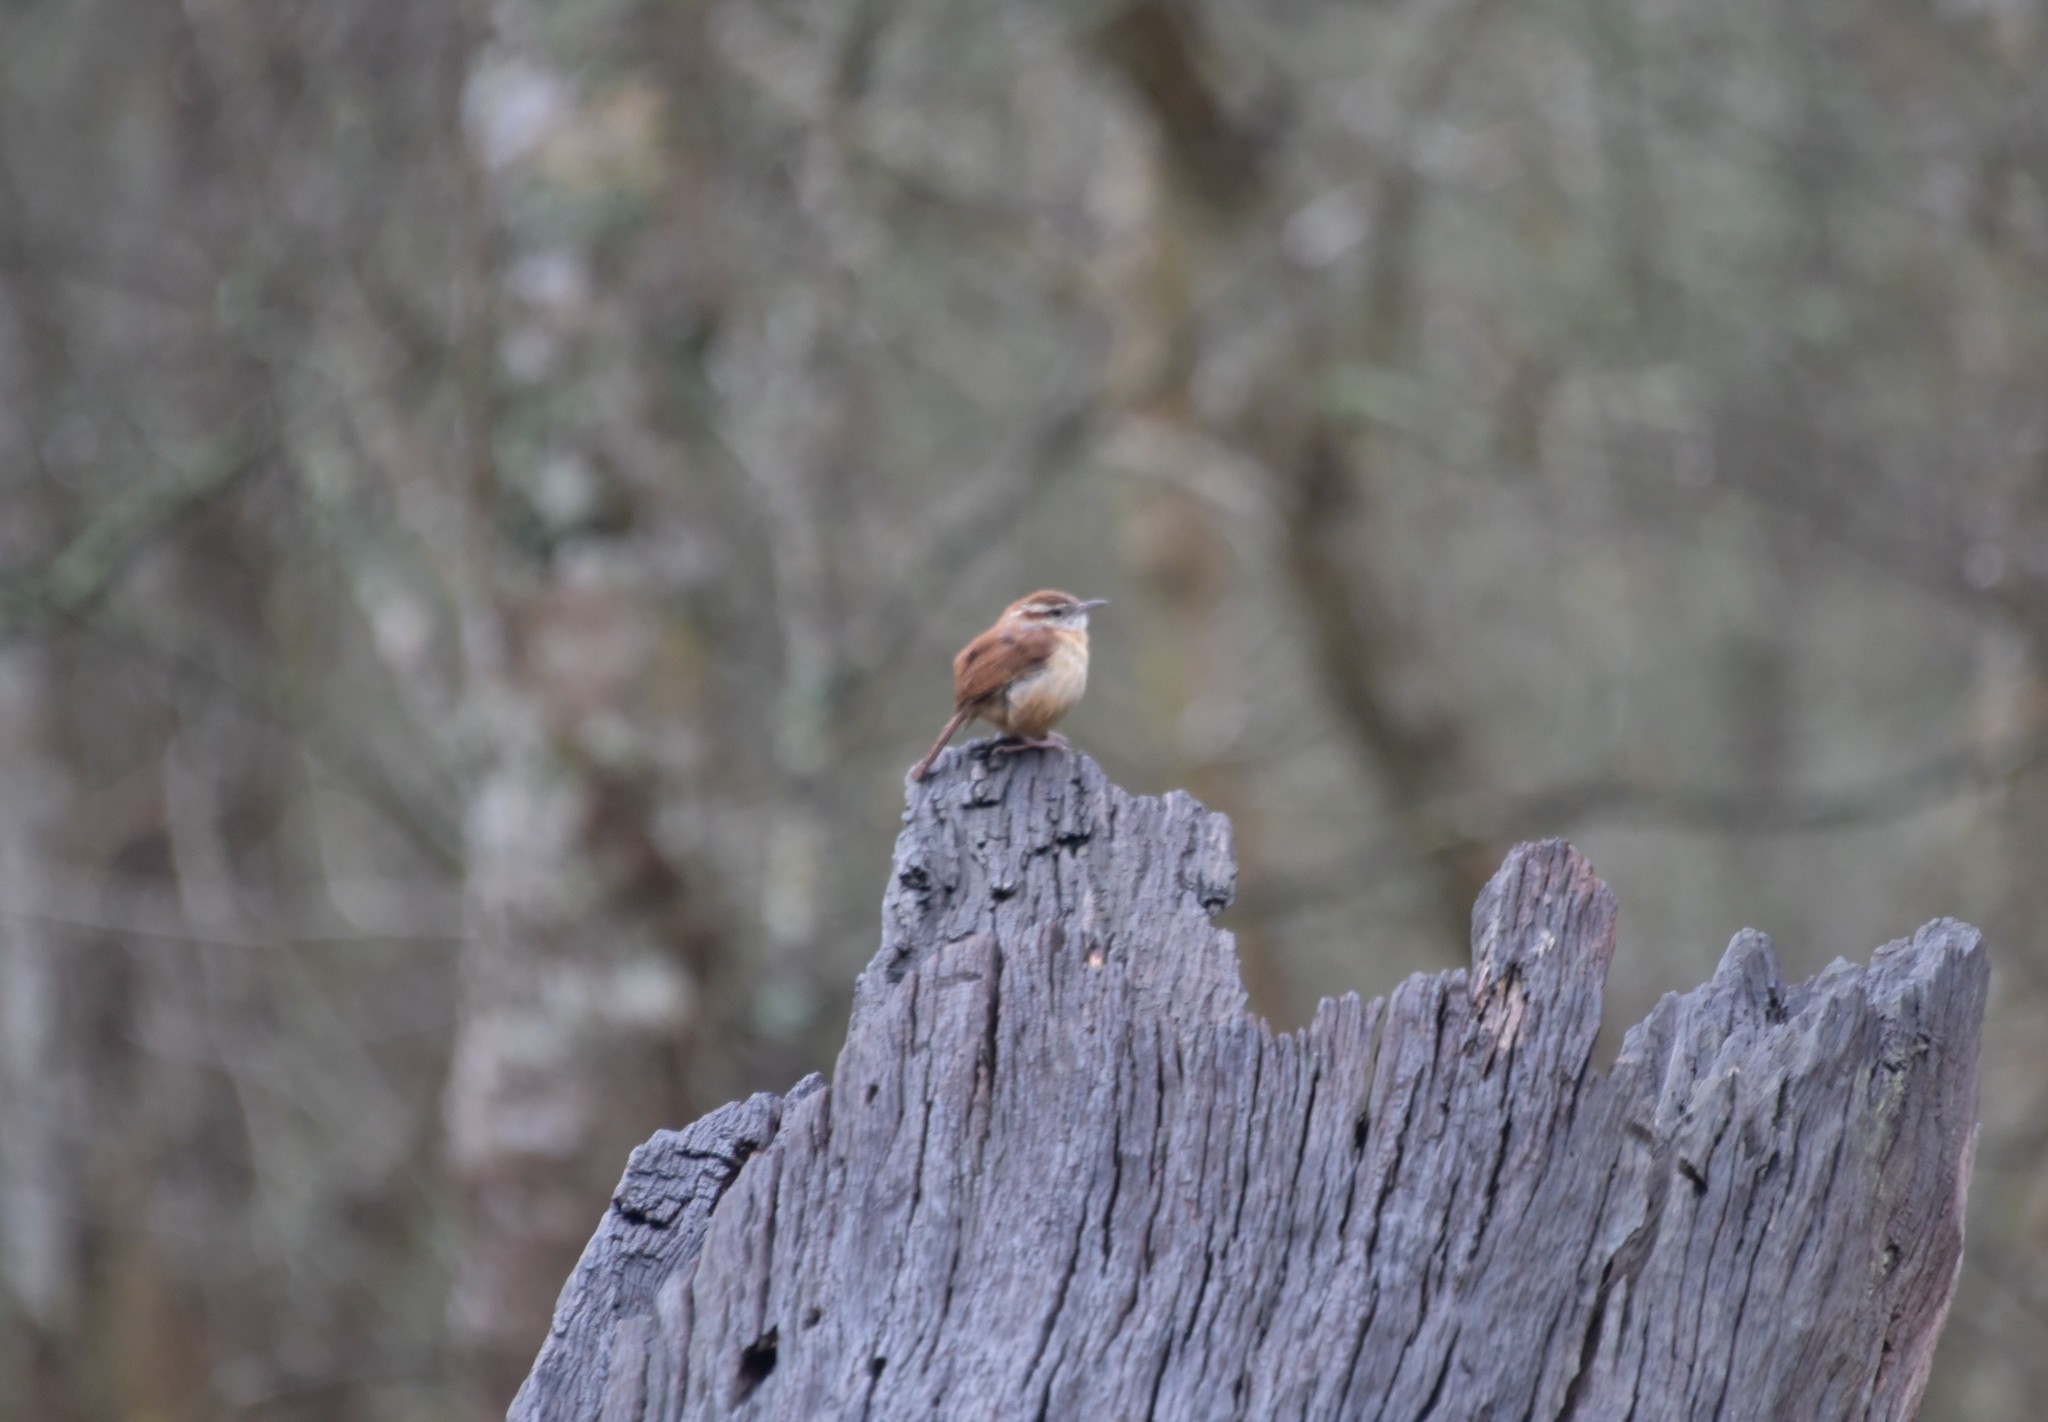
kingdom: Animalia
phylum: Chordata
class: Aves
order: Passeriformes
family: Troglodytidae
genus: Thryothorus
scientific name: Thryothorus ludovicianus
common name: Carolina wren
